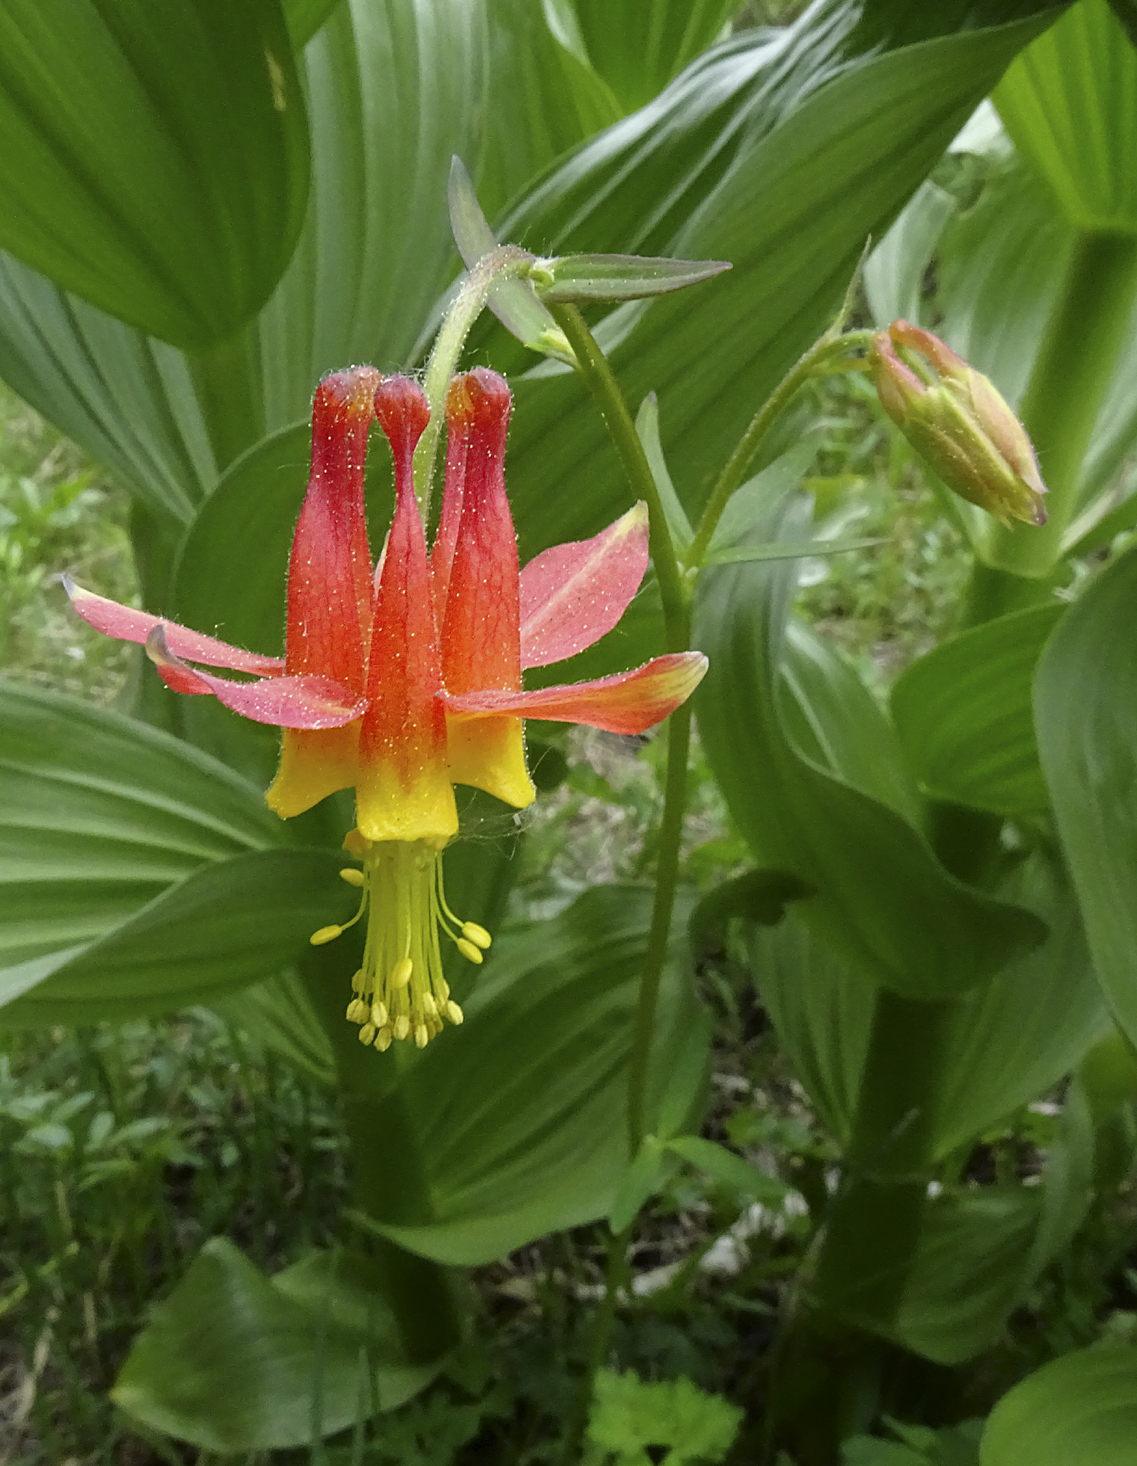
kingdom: Plantae
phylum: Tracheophyta
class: Magnoliopsida
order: Ranunculales
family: Ranunculaceae
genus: Aquilegia
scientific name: Aquilegia formosa
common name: Sitka columbine
